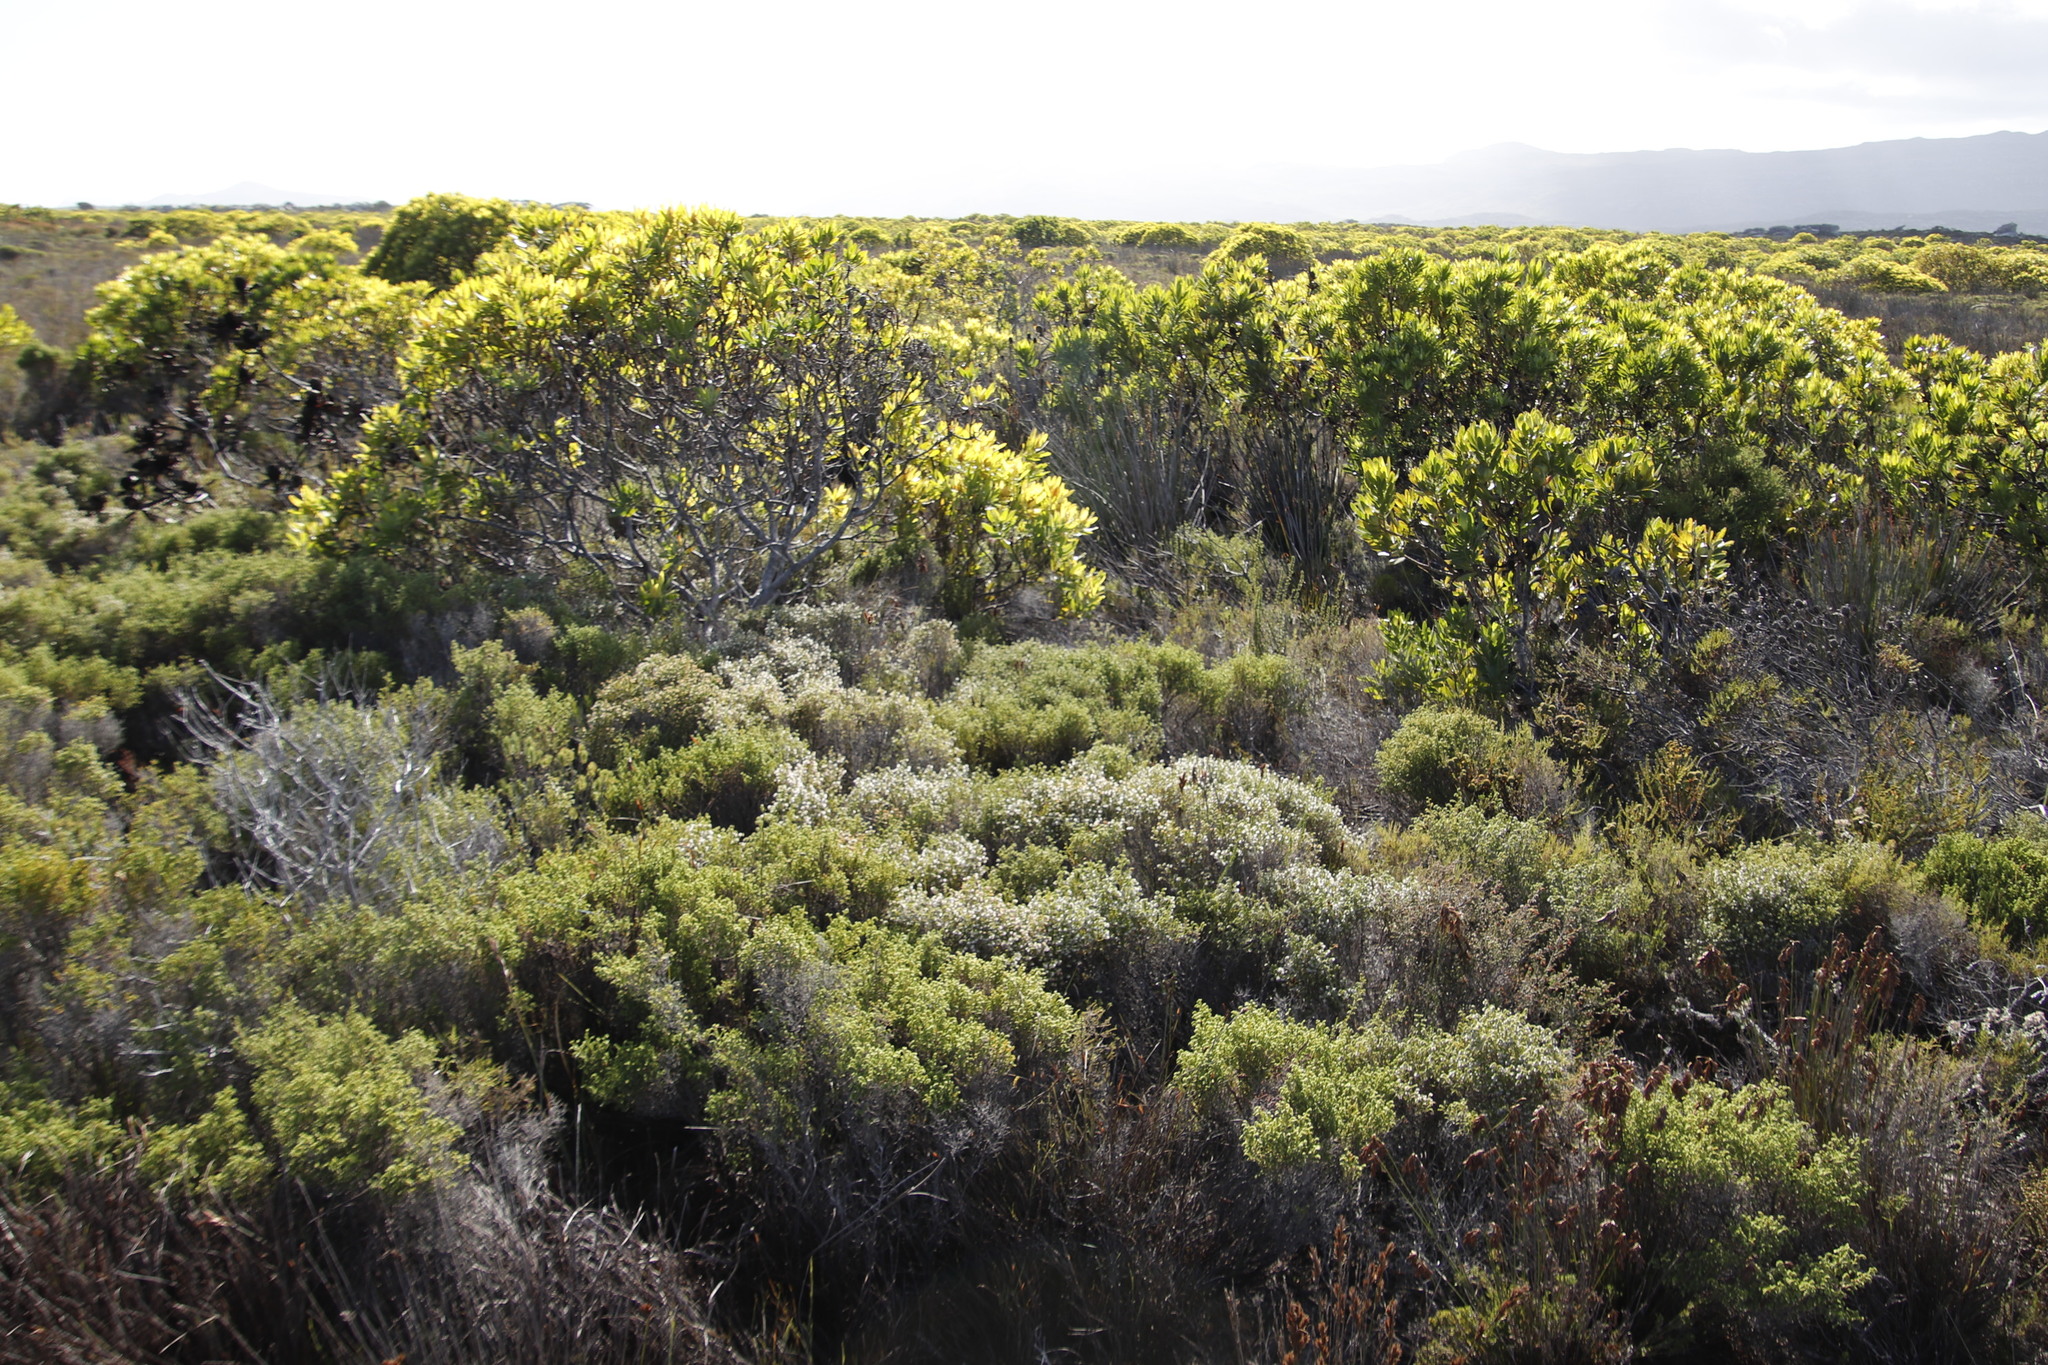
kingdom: Plantae
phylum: Tracheophyta
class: Magnoliopsida
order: Proteales
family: Proteaceae
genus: Leucadendron
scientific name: Leucadendron laureolum
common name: Golden sunshinebush
